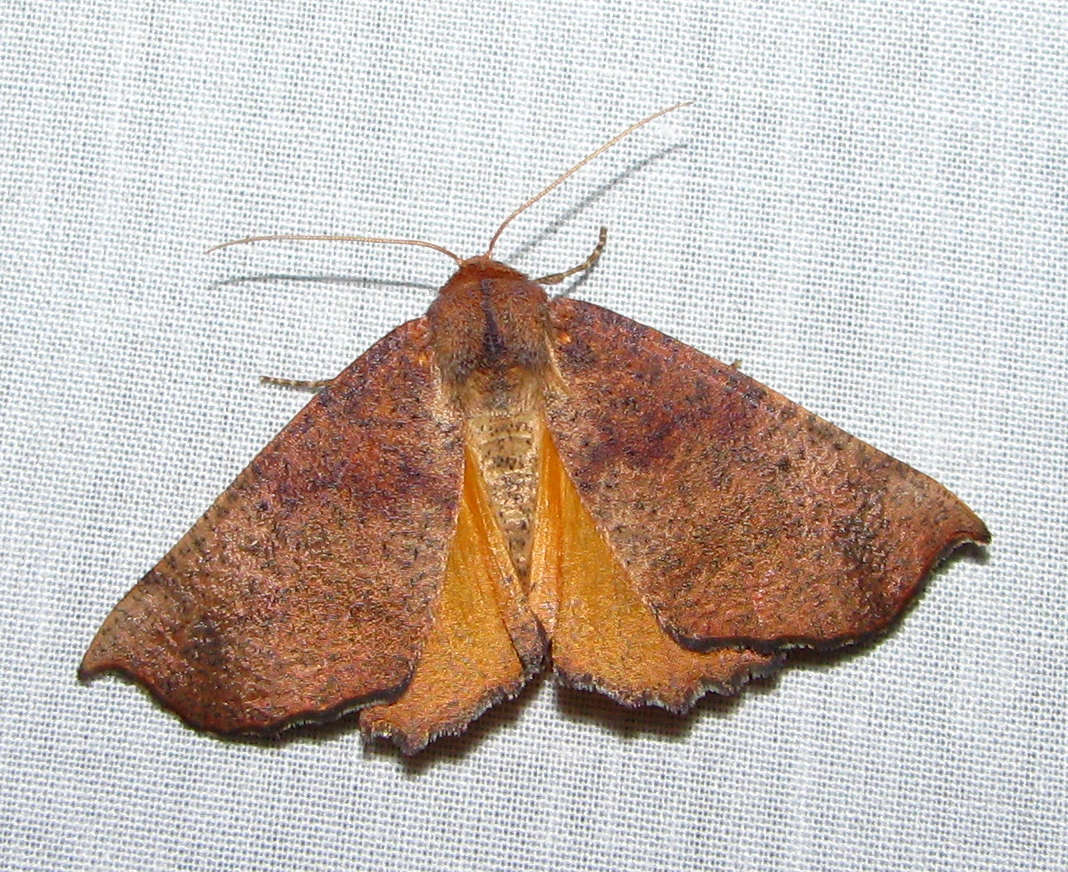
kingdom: Animalia
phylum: Arthropoda
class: Insecta
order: Lepidoptera
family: Geometridae
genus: Mnesampela
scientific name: Mnesampela privata
